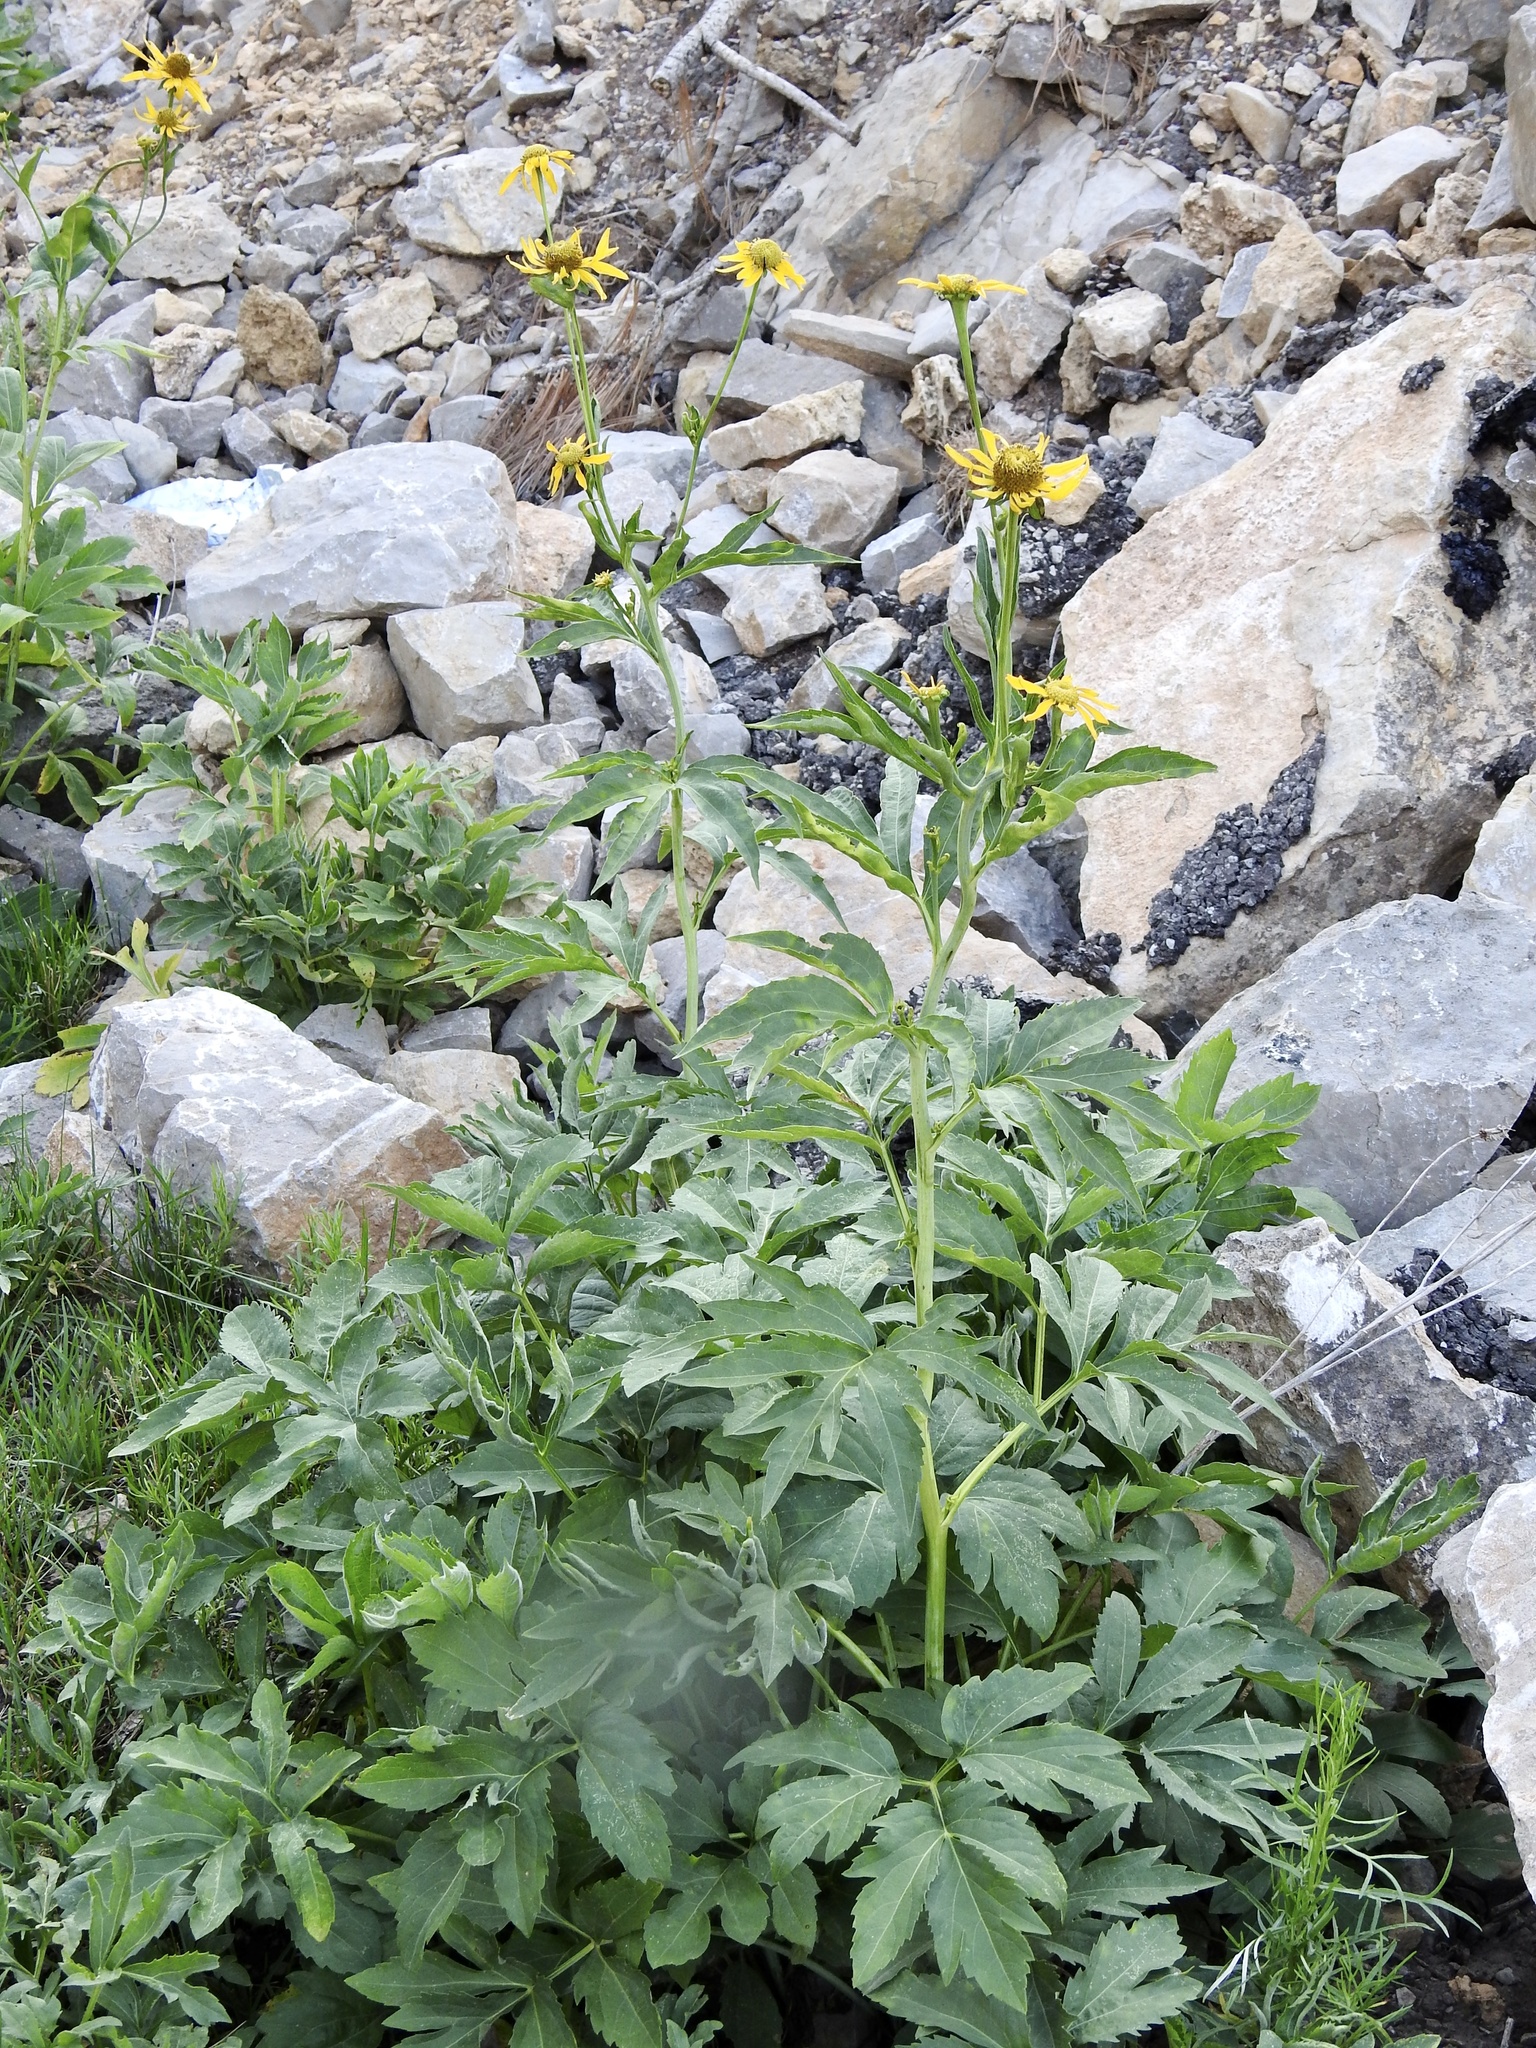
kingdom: Plantae
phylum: Tracheophyta
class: Magnoliopsida
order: Asterales
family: Asteraceae
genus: Rudbeckia
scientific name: Rudbeckia laciniata
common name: Coneflower
